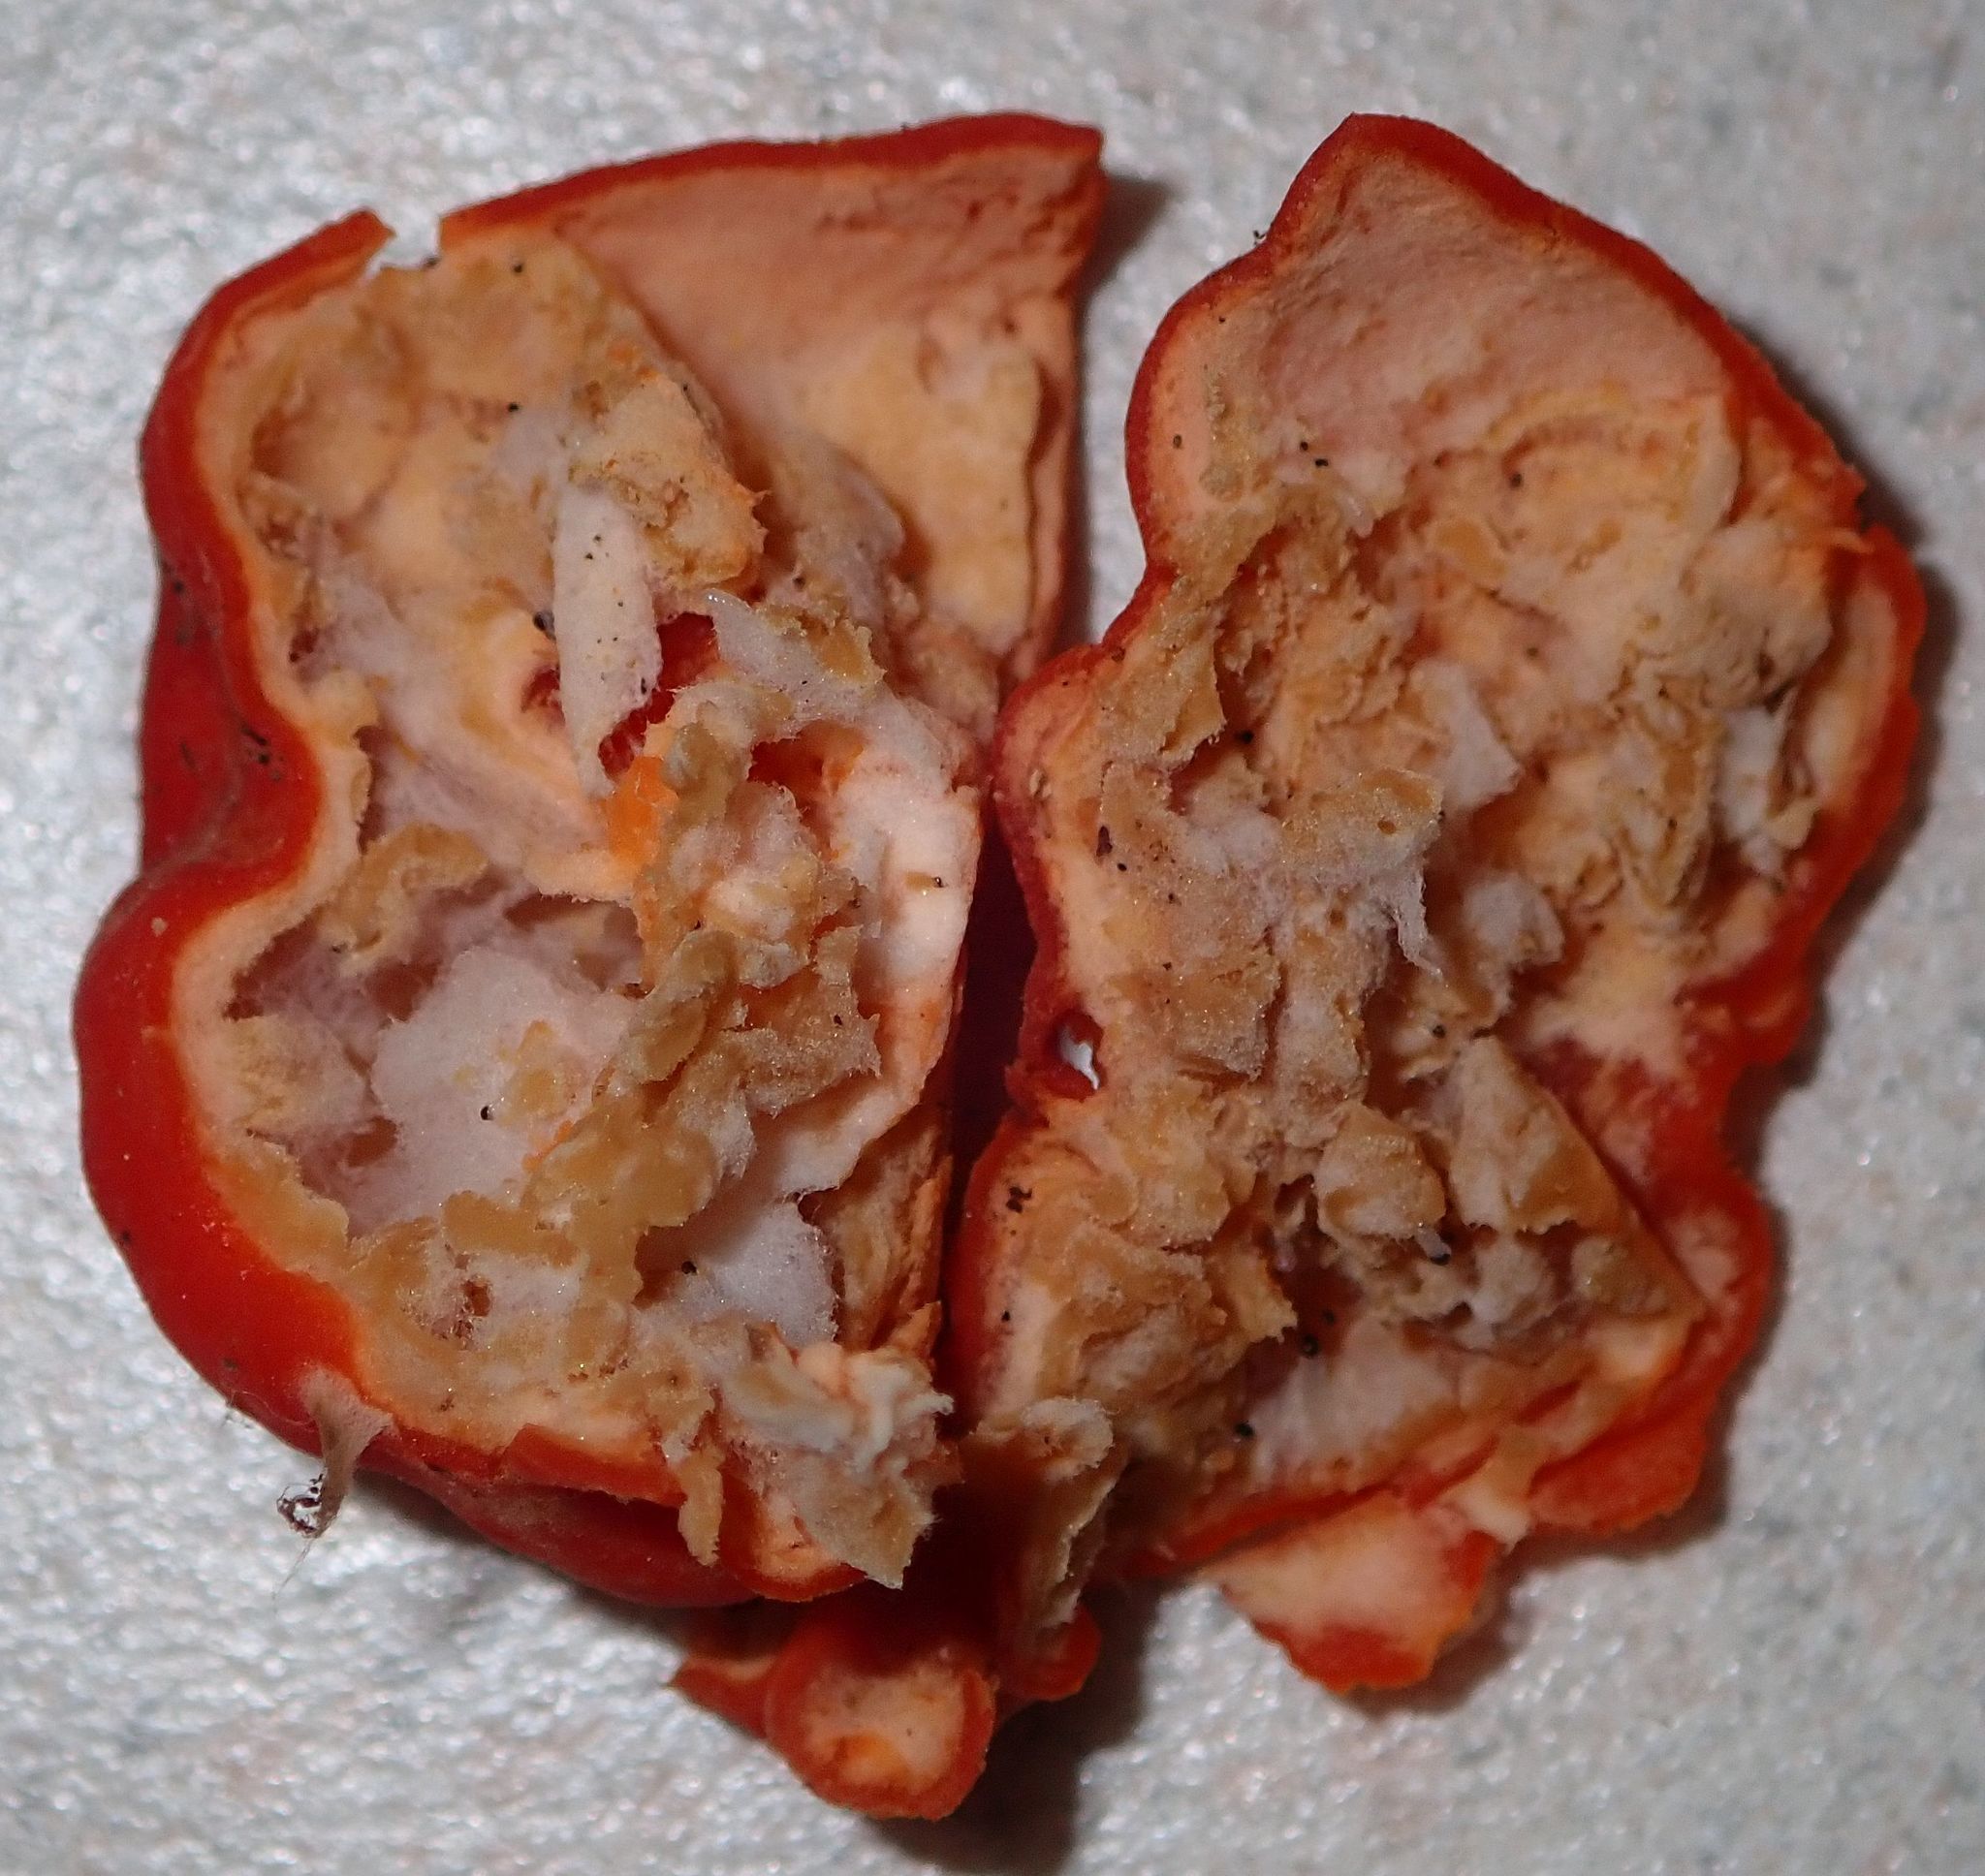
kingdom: Fungi
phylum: Ascomycota
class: Pezizomycetes
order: Pezizales
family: Pyronemataceae
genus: Paurocotylis
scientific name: Paurocotylis pila
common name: Scarlet berry truffle
